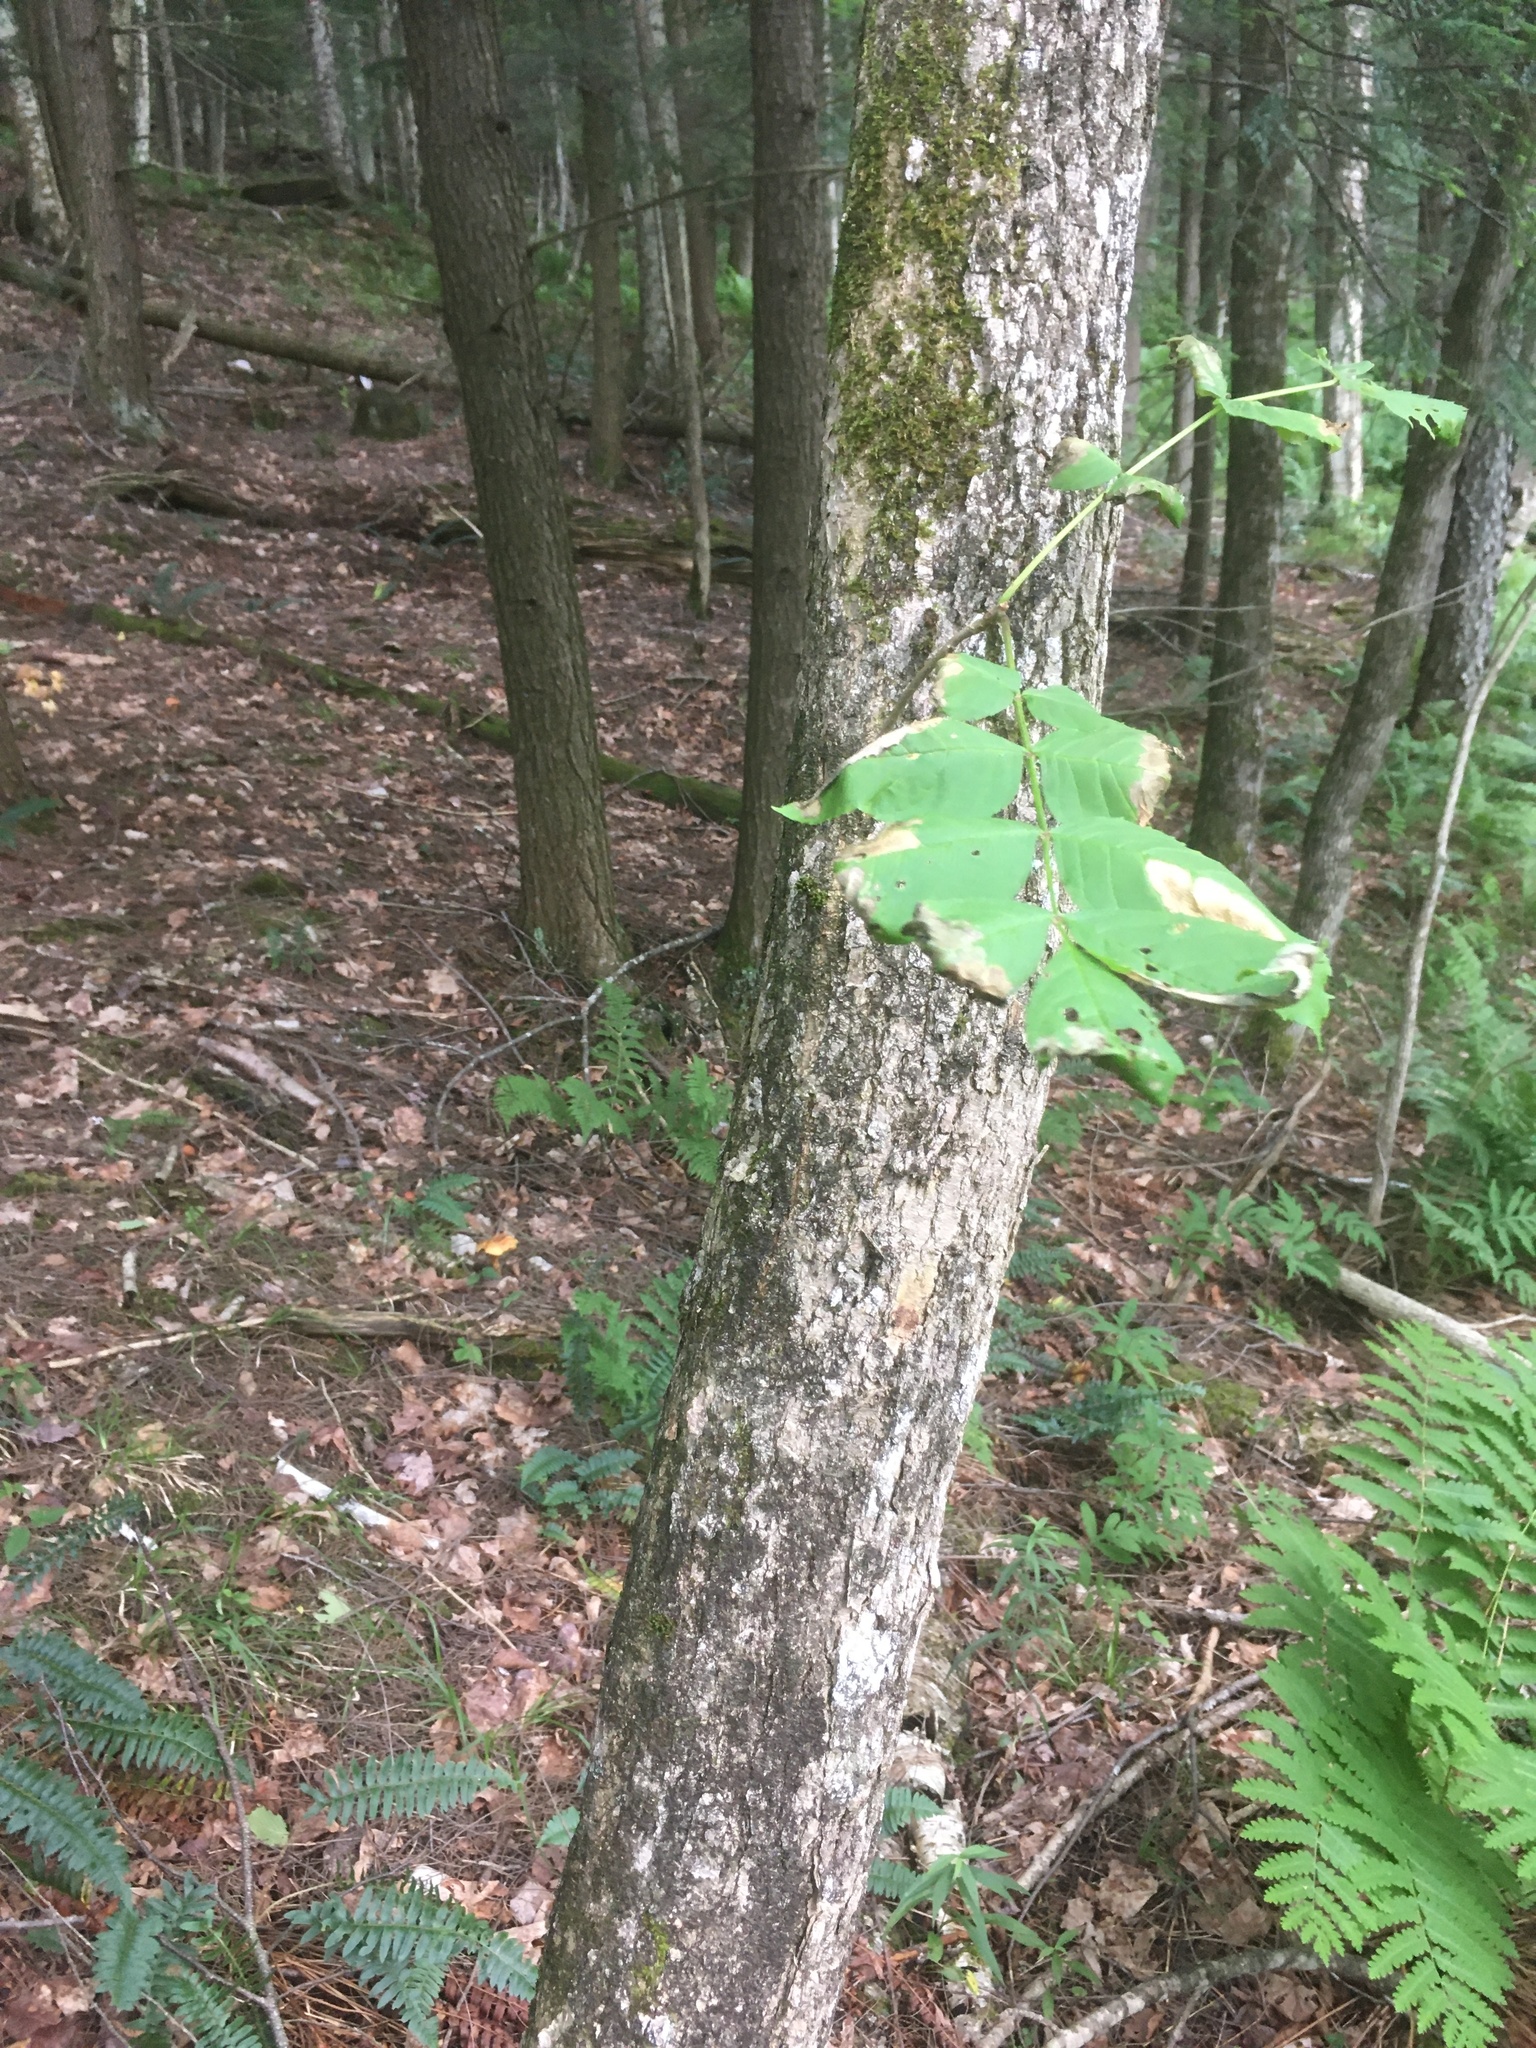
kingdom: Plantae
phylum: Tracheophyta
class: Magnoliopsida
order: Lamiales
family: Oleaceae
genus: Fraxinus
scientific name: Fraxinus nigra
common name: Black ash
